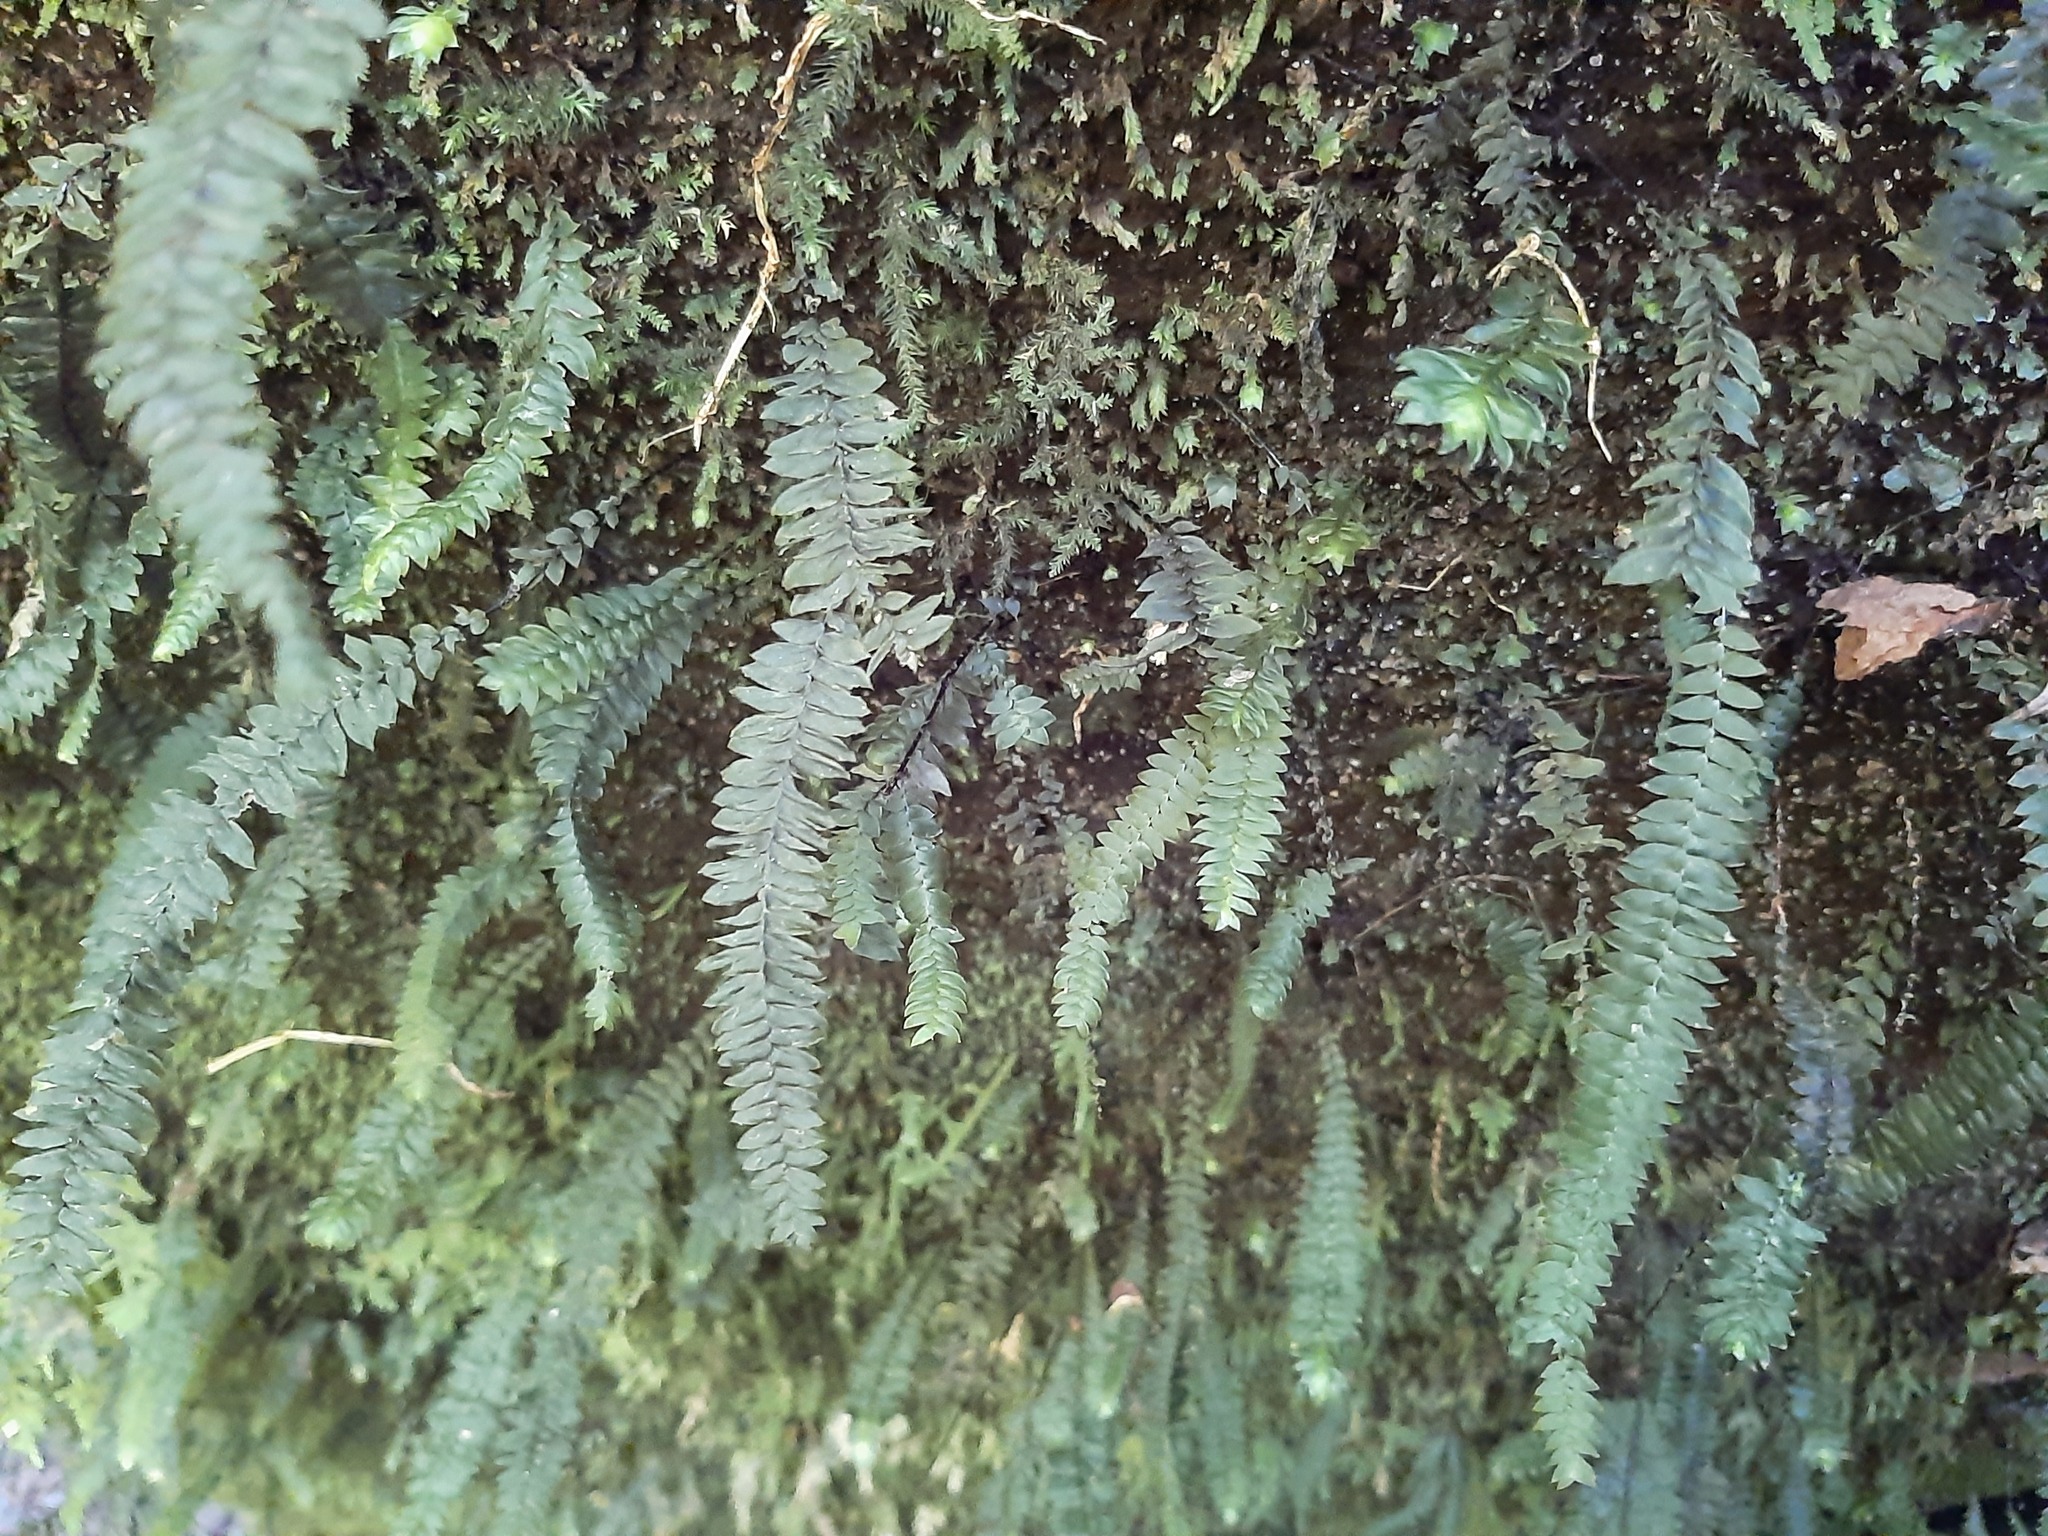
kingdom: Plantae
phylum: Bryophyta
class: Bryopsida
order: Hypopterygiales
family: Hypopterygiaceae
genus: Cyathophorum
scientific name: Cyathophorum bulbosum
